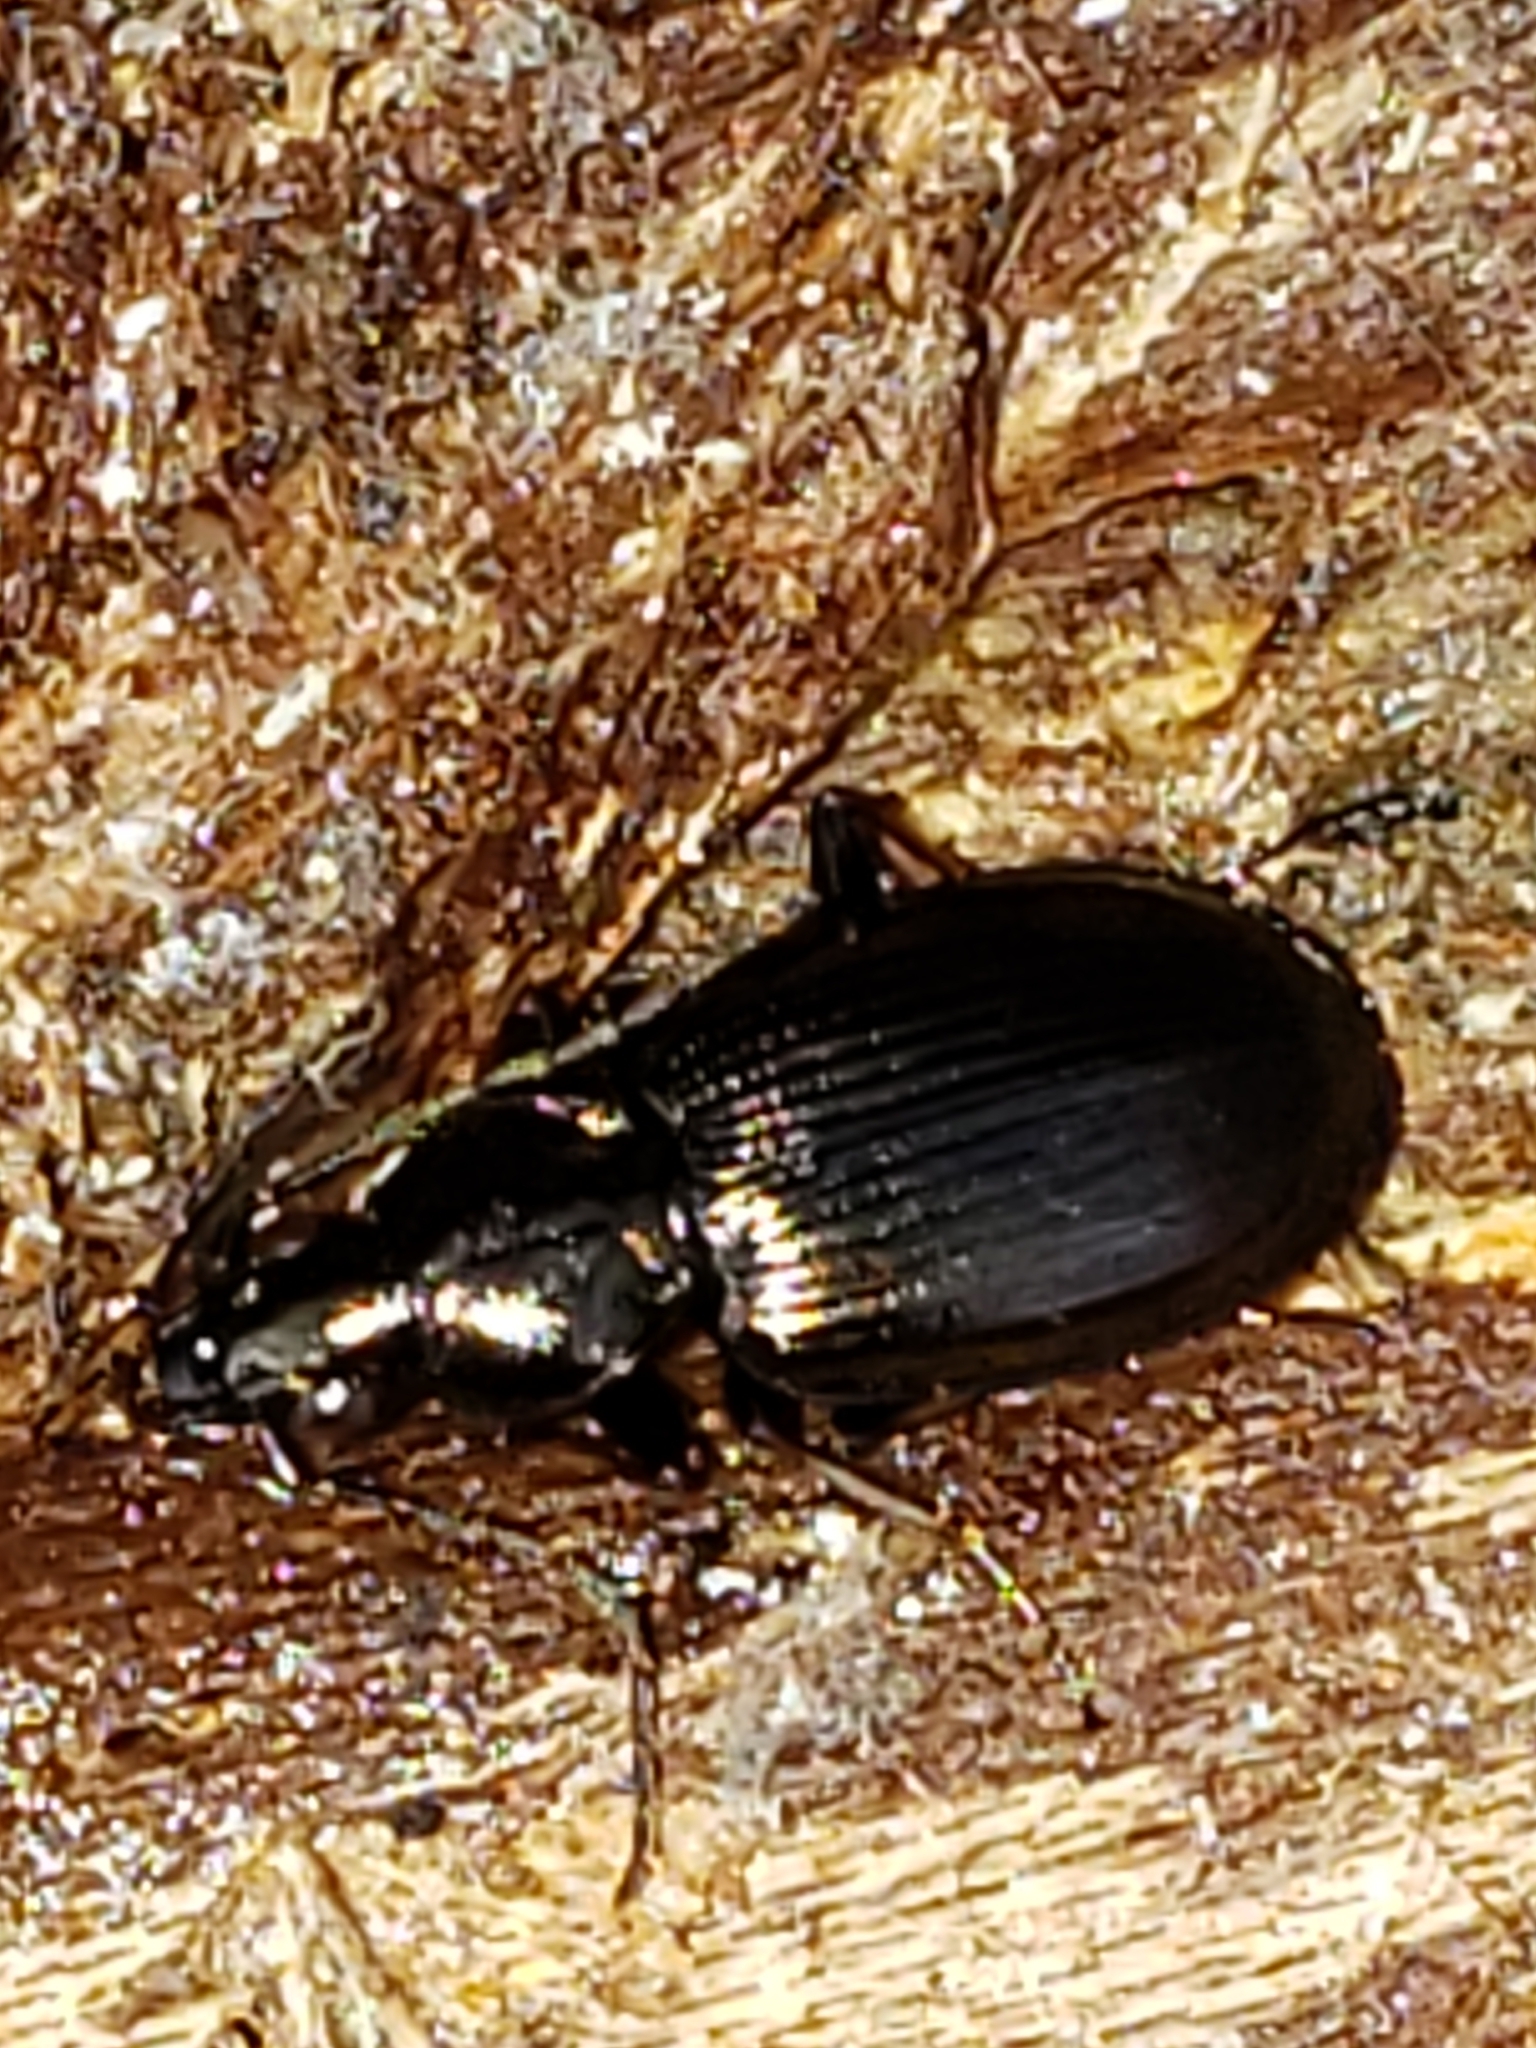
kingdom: Animalia
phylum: Arthropoda
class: Insecta
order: Coleoptera
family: Carabidae
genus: Agonum
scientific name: Agonum striatopunctatum
